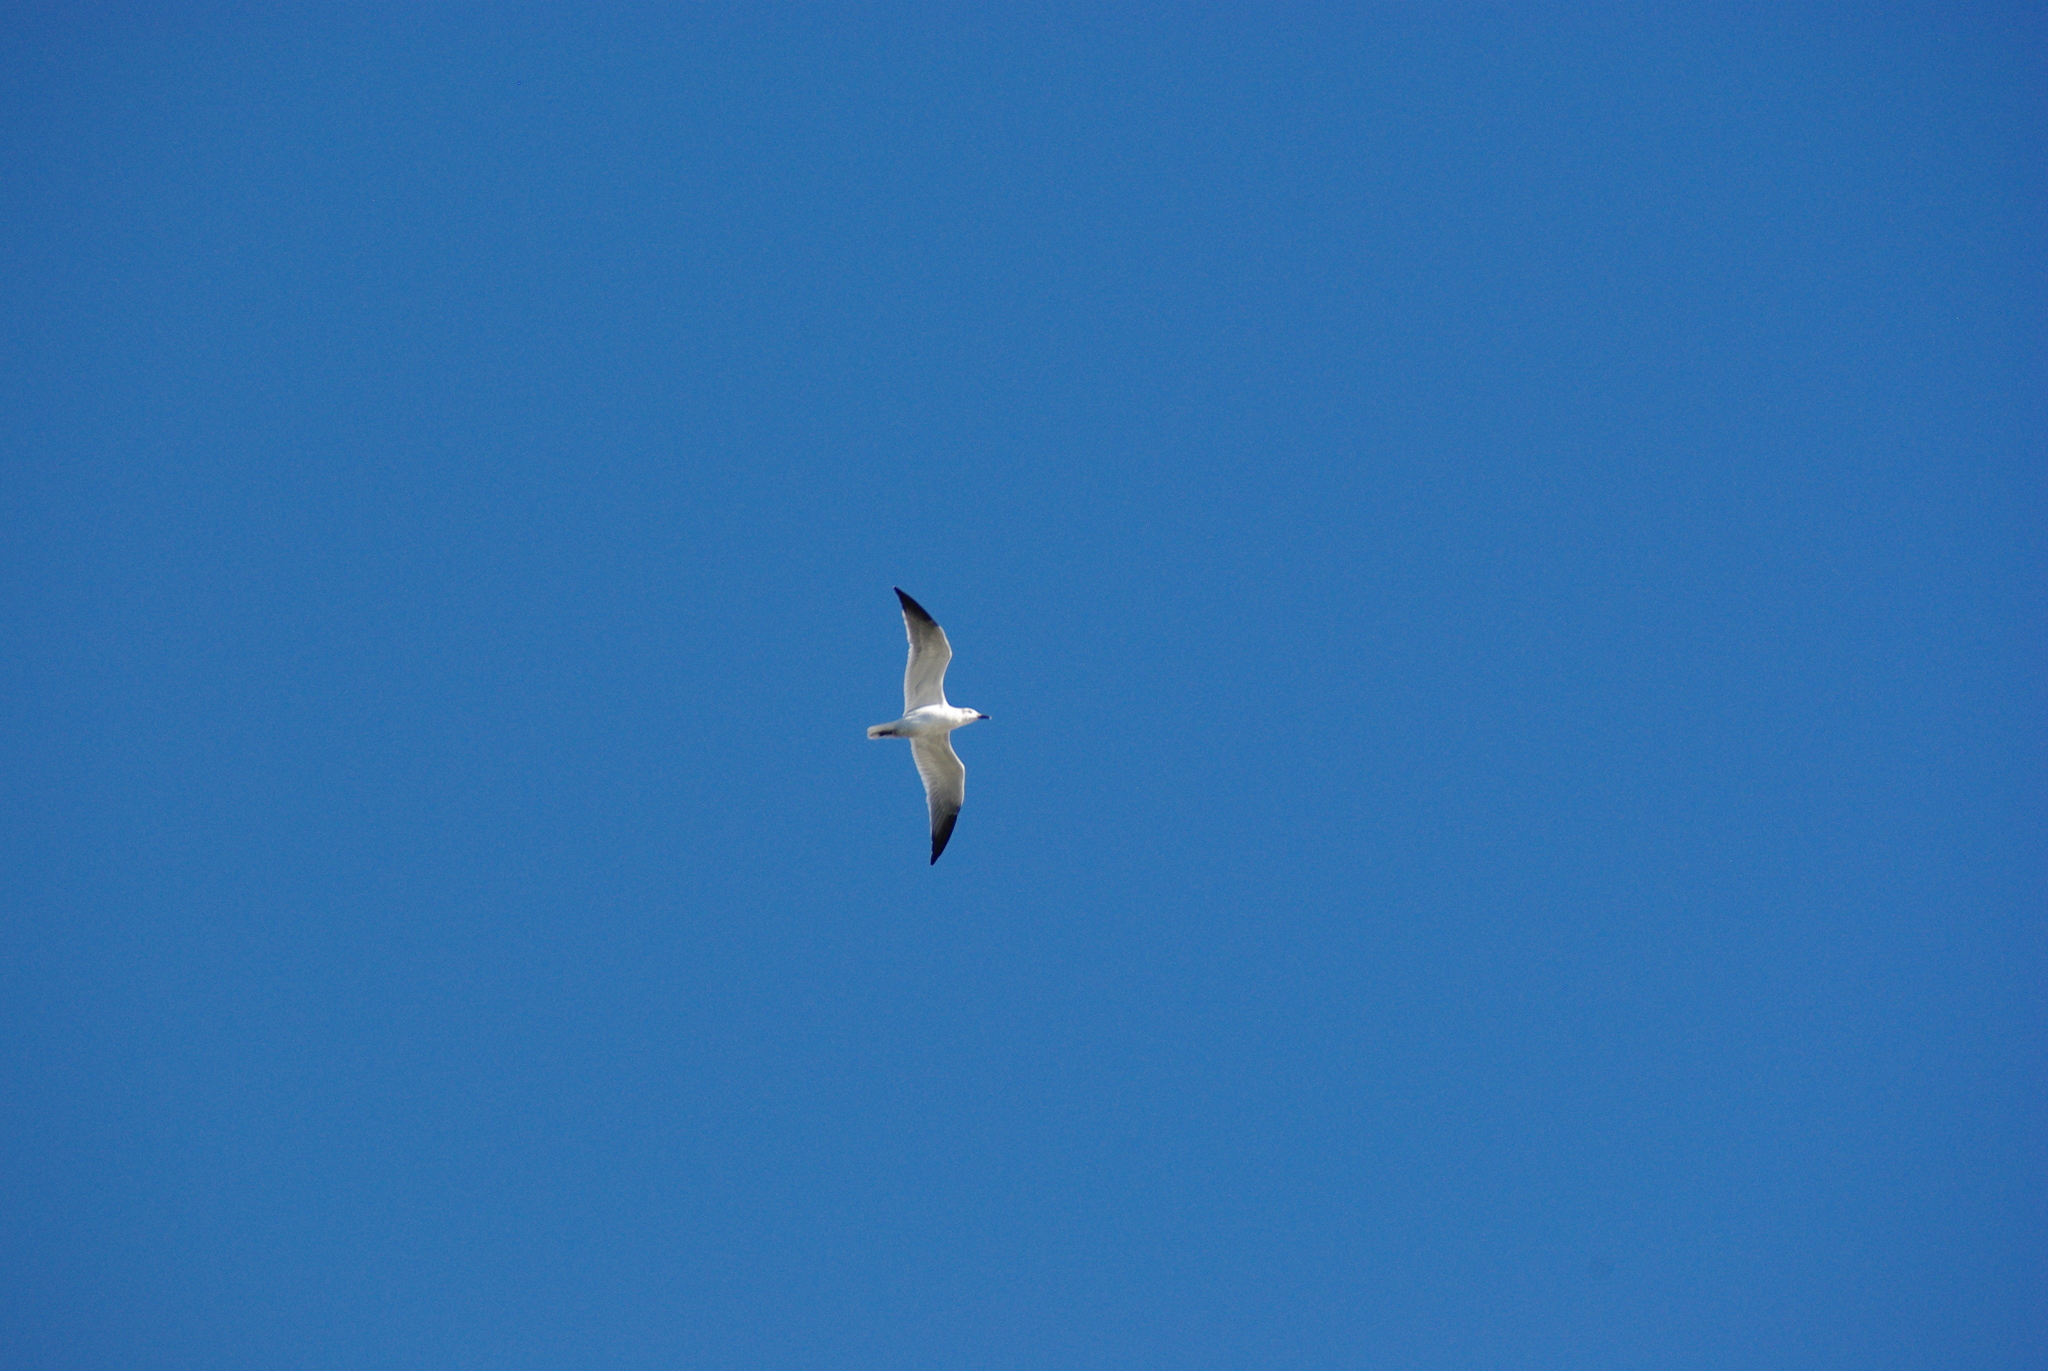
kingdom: Animalia
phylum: Chordata
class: Aves
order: Charadriiformes
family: Laridae
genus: Leucophaeus
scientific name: Leucophaeus atricilla
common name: Laughing gull
